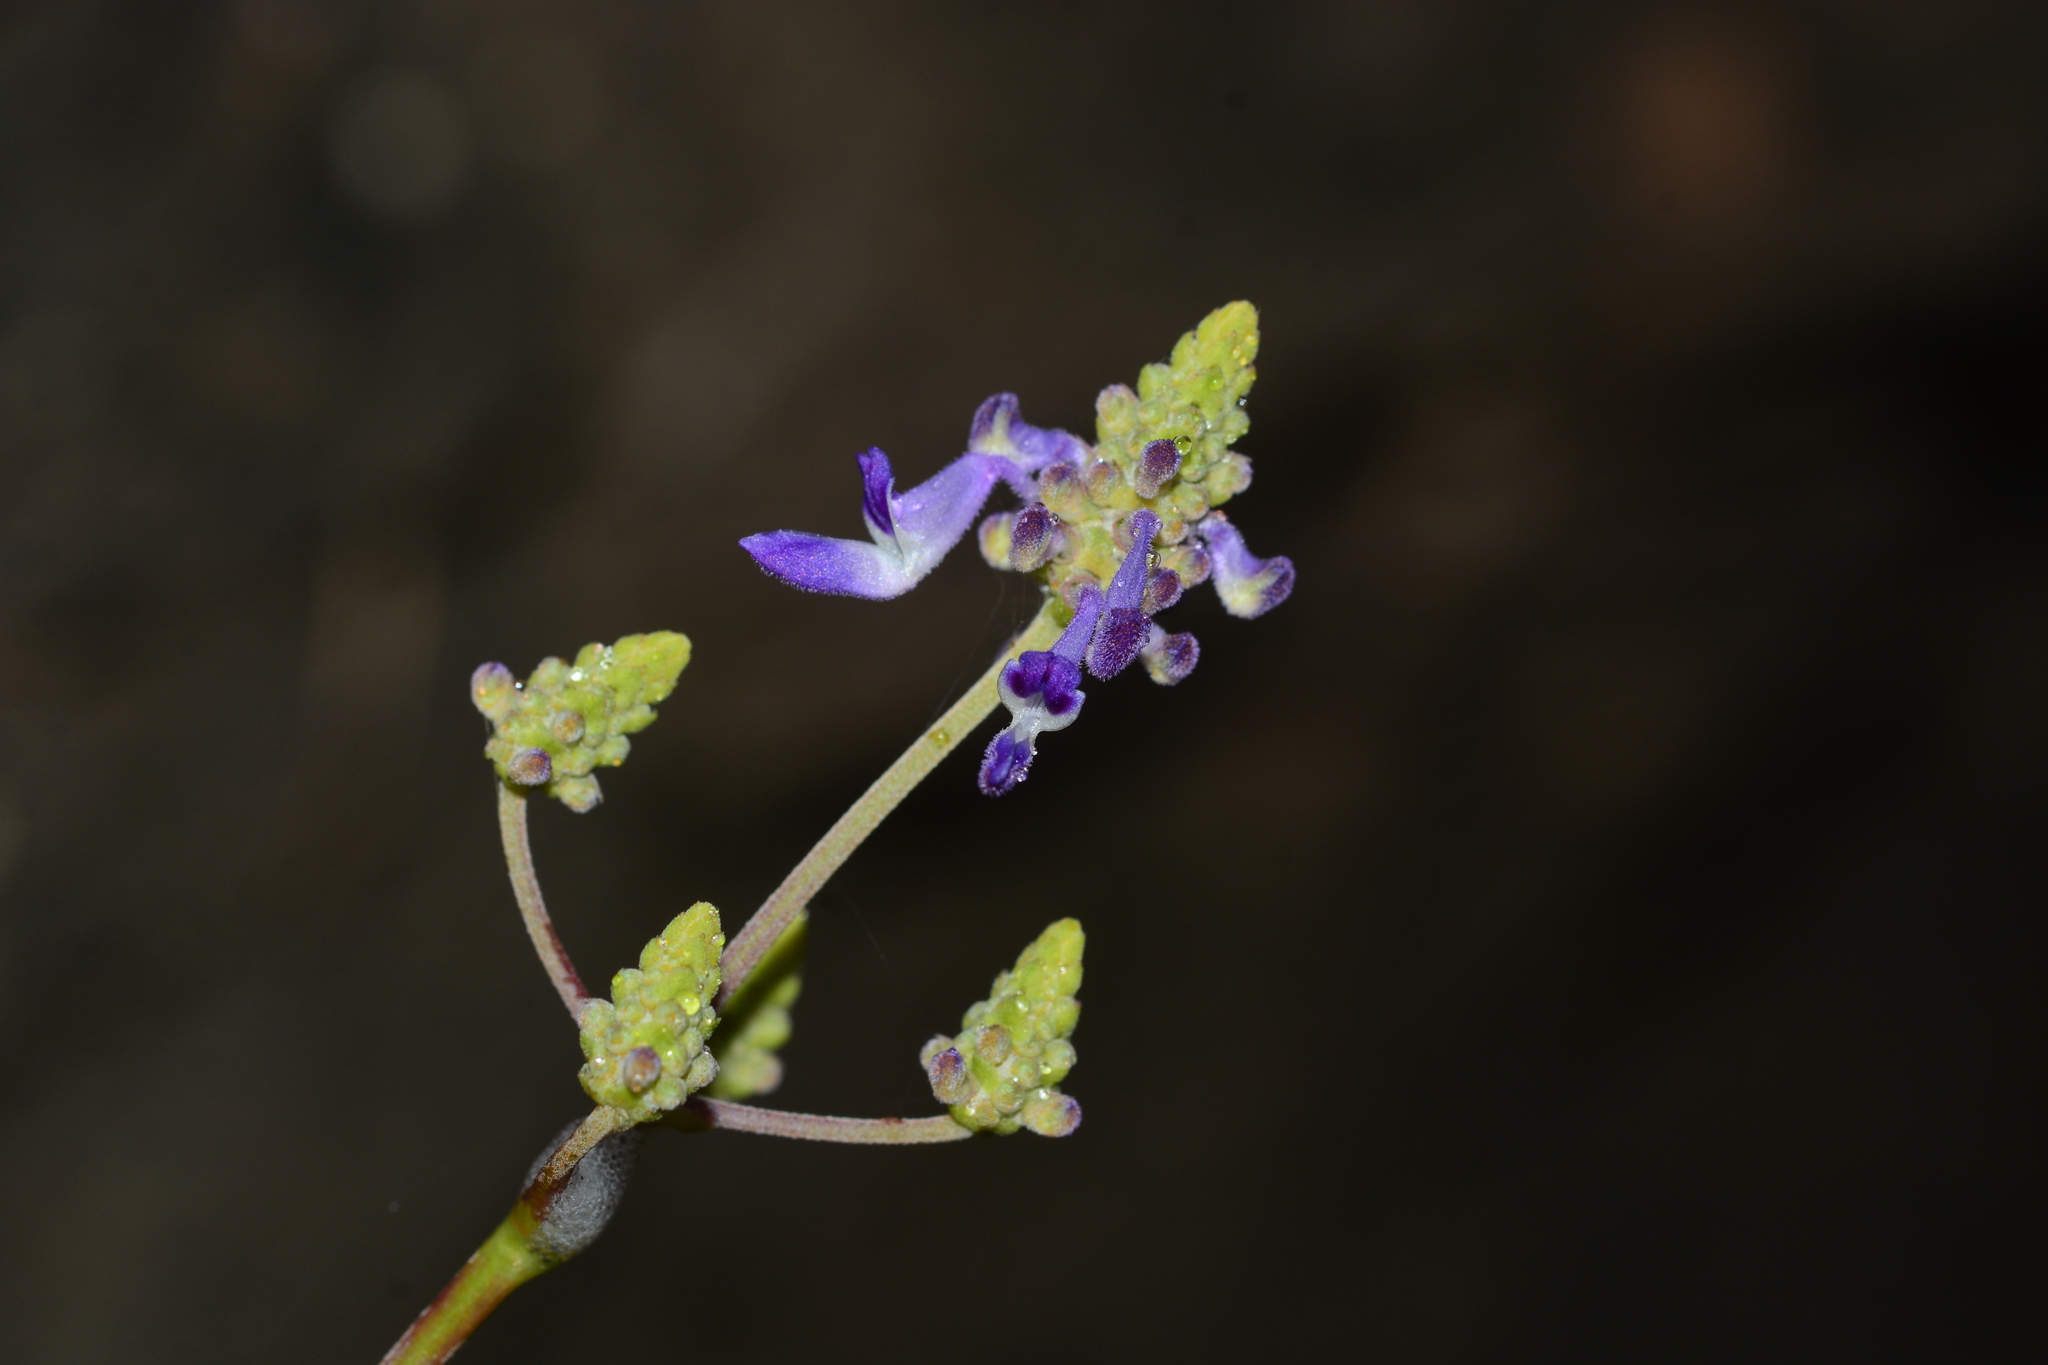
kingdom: Plantae
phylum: Tracheophyta
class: Magnoliopsida
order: Lamiales
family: Lamiaceae
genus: Coleus
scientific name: Coleus strobilifer
